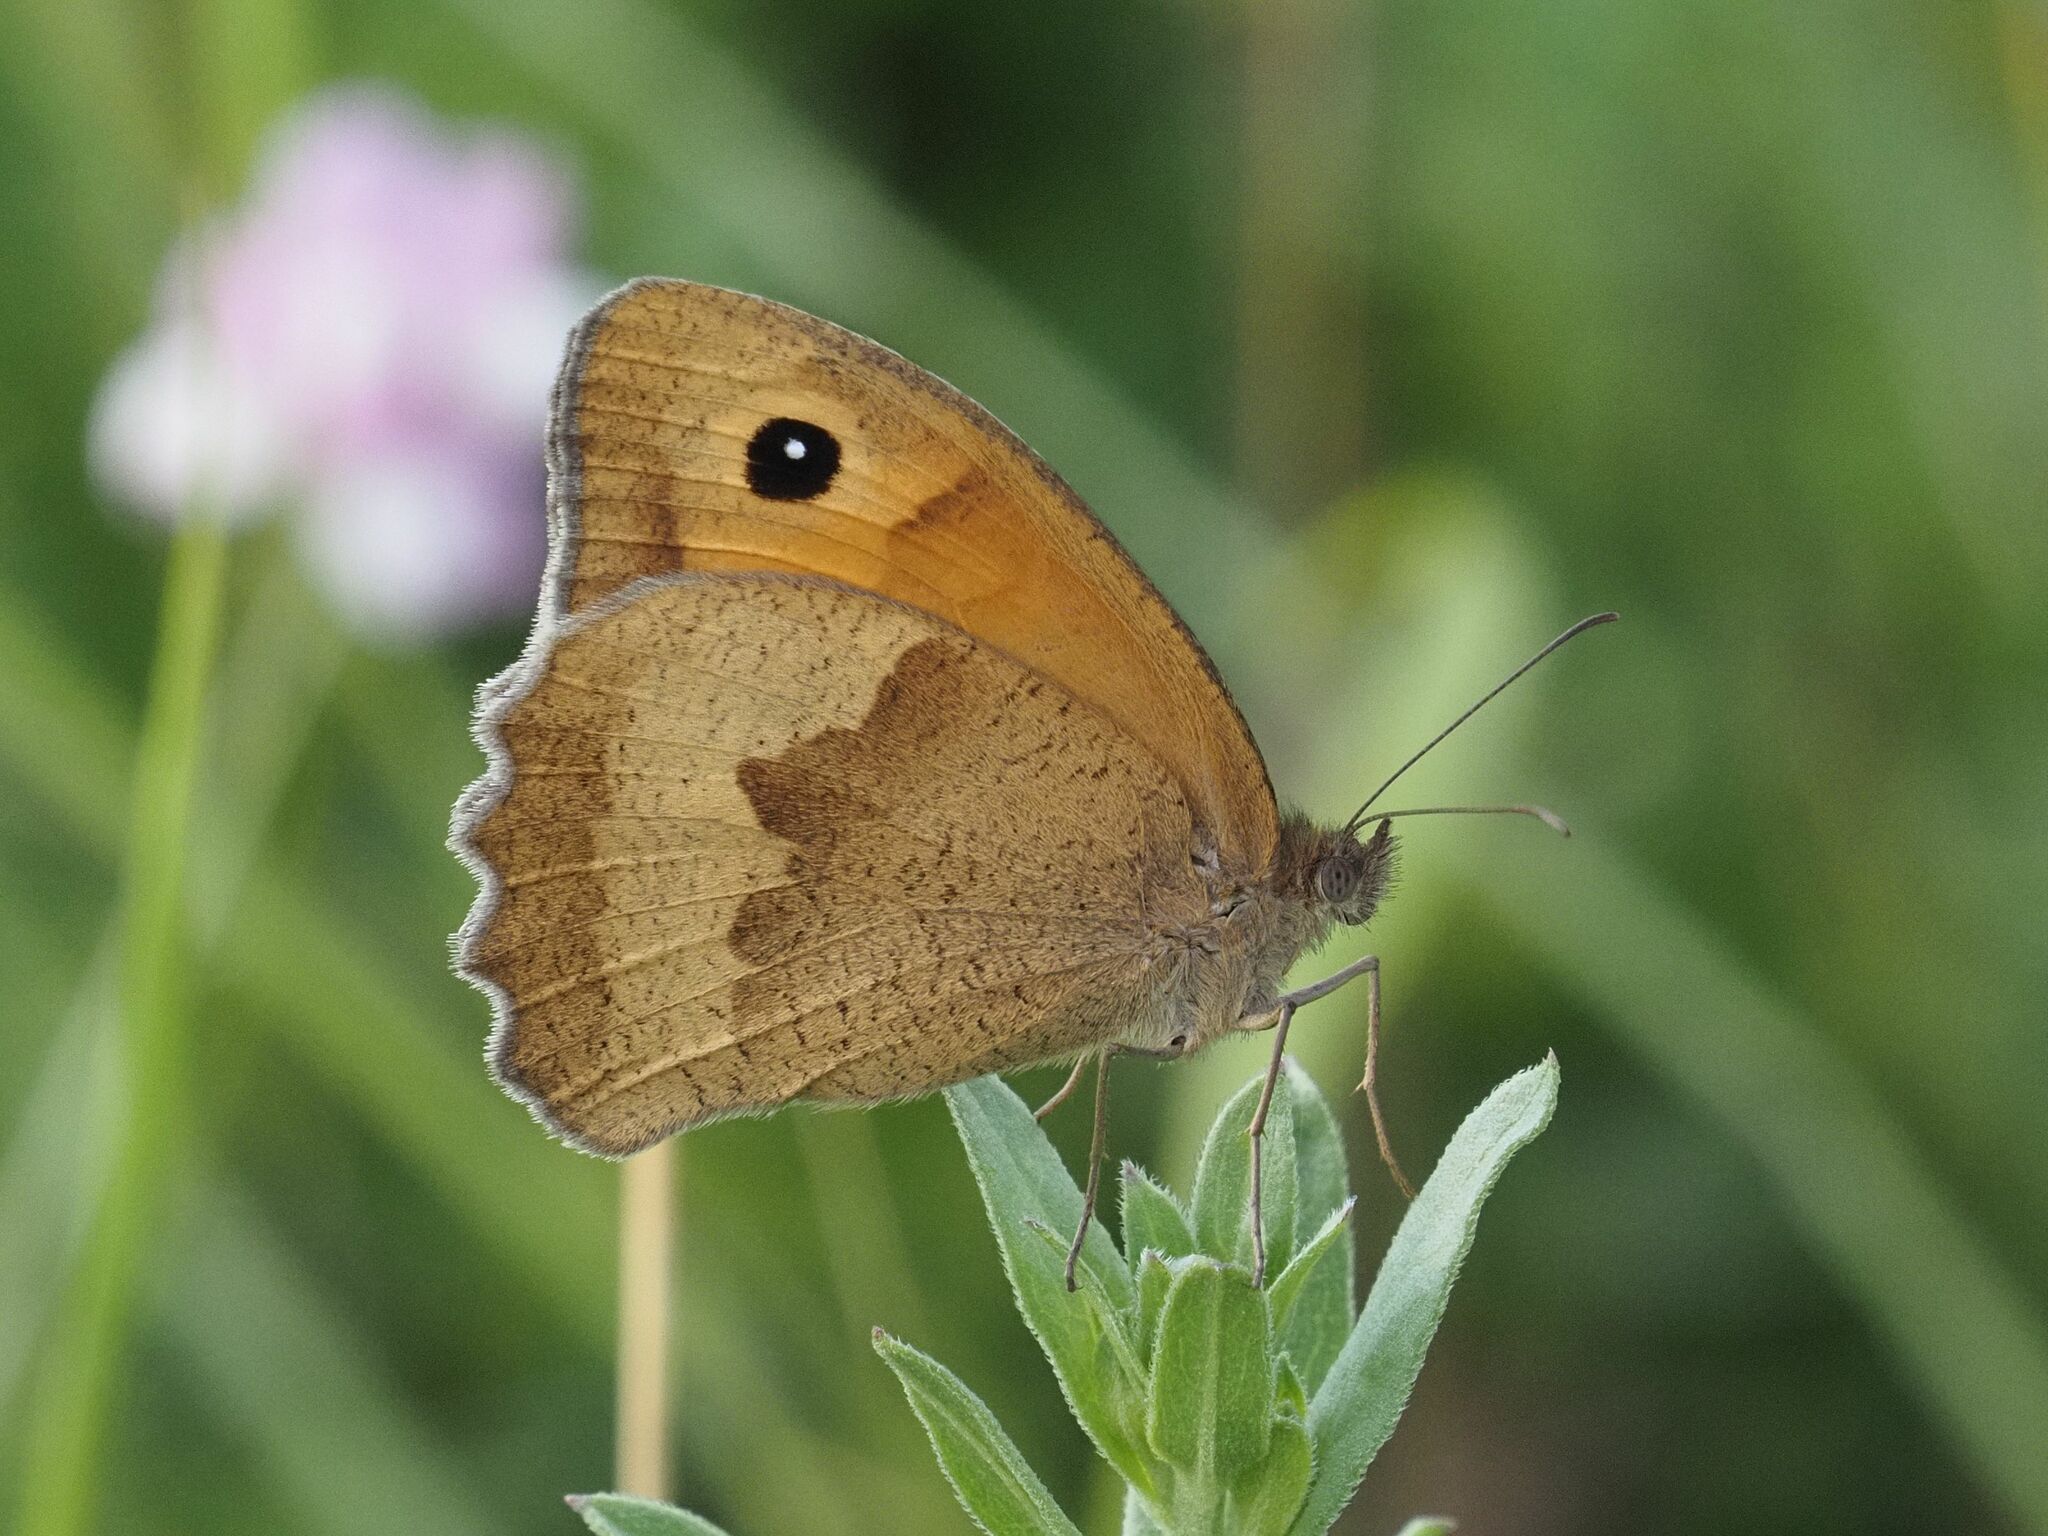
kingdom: Animalia
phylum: Arthropoda
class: Insecta
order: Lepidoptera
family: Nymphalidae
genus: Maniola
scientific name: Maniola jurtina
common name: Meadow brown
